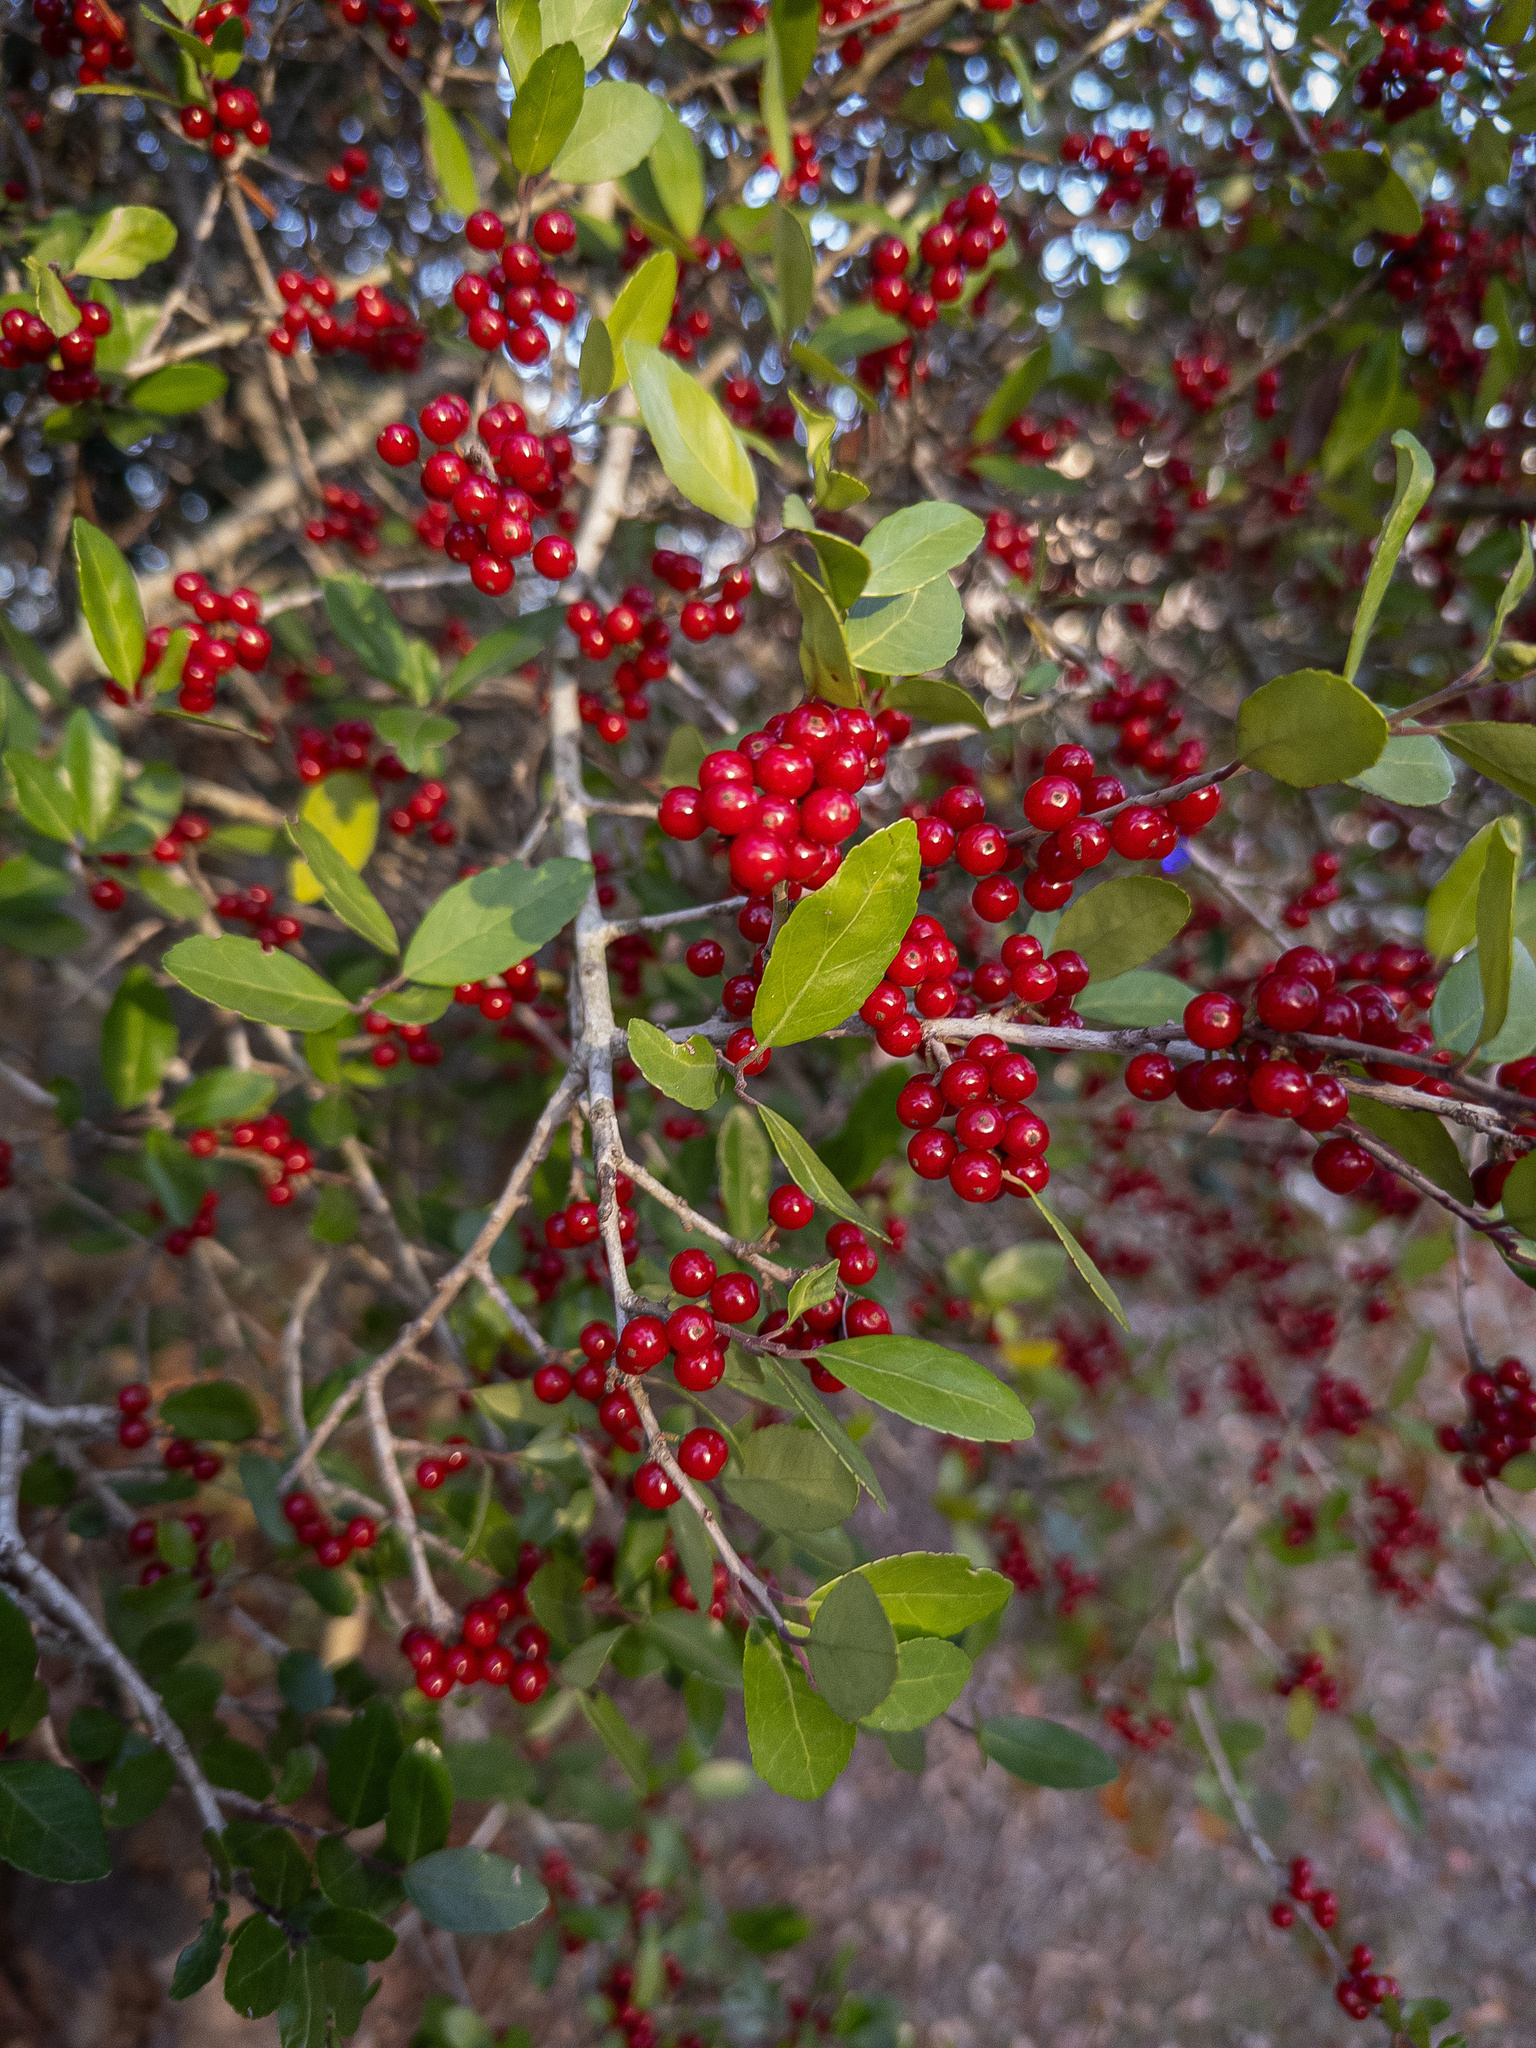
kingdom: Plantae
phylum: Tracheophyta
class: Magnoliopsida
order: Aquifoliales
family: Aquifoliaceae
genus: Ilex
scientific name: Ilex vomitoria
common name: Yaupon holly
